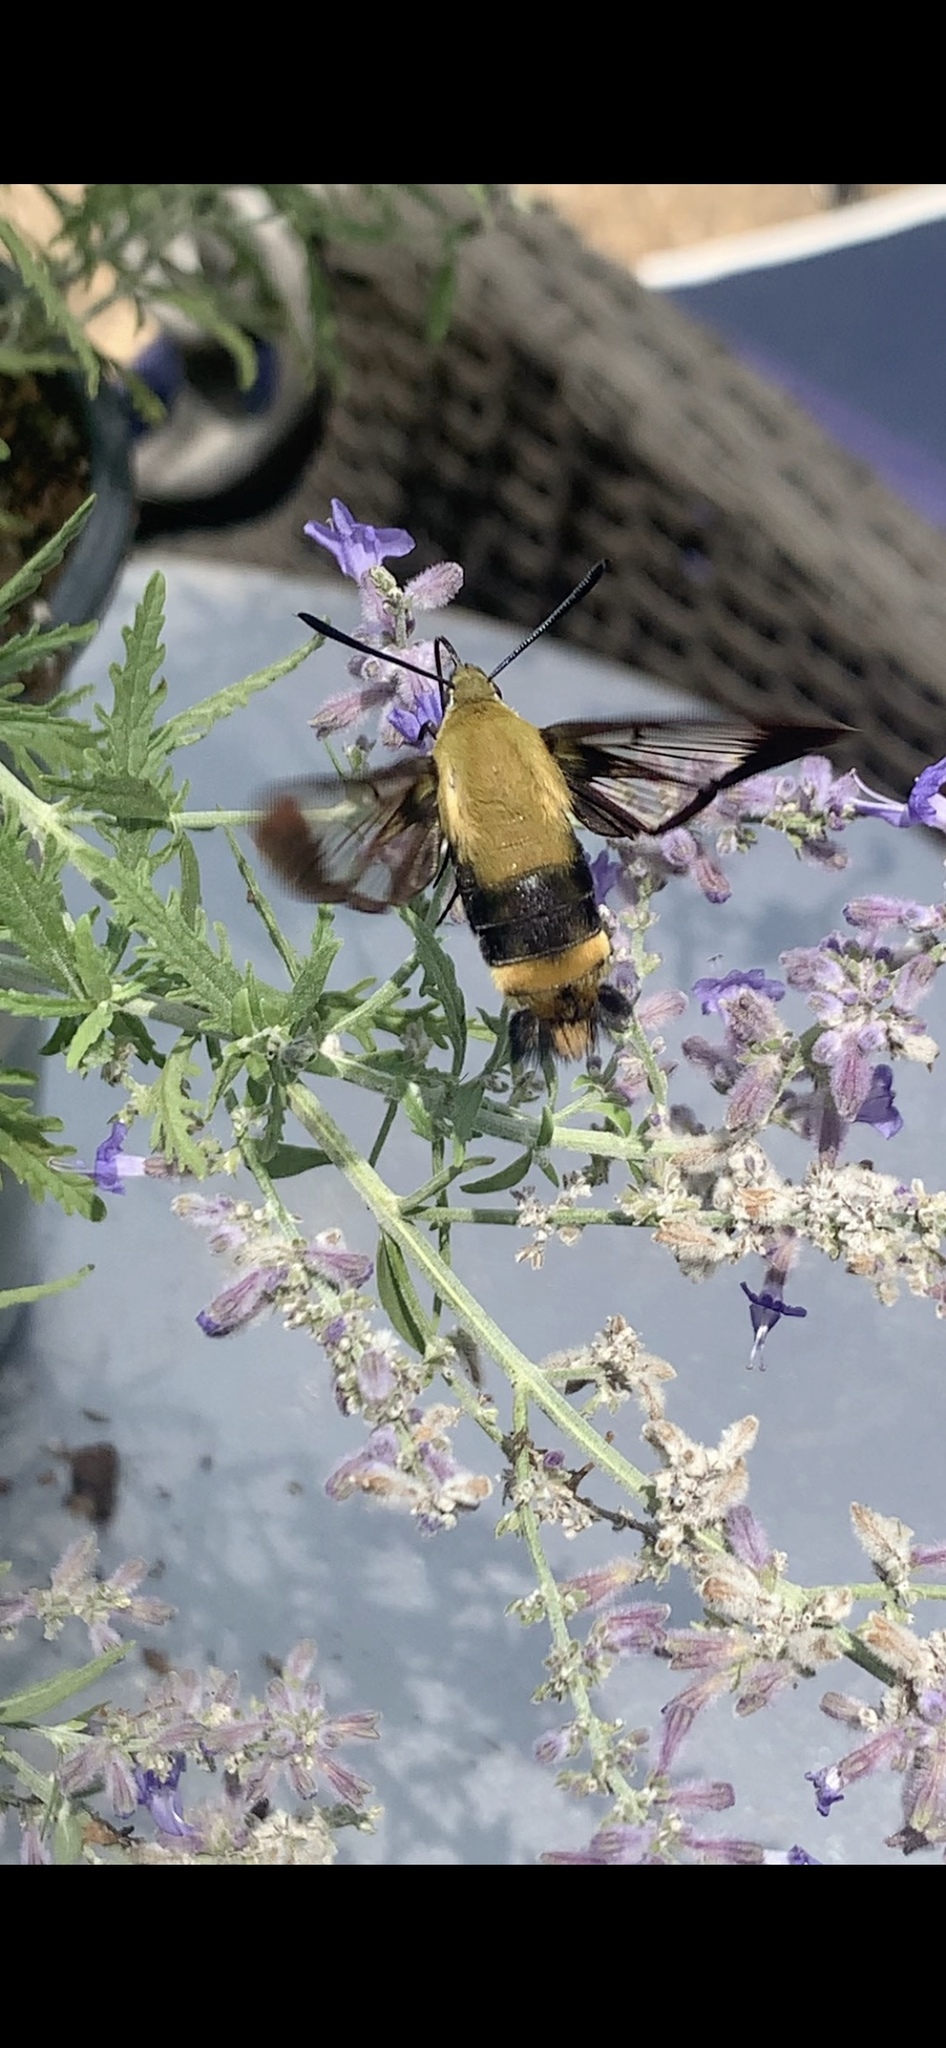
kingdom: Animalia
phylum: Arthropoda
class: Insecta
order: Lepidoptera
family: Sphingidae
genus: Hemaris
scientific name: Hemaris diffinis
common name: Bumblebee moth
